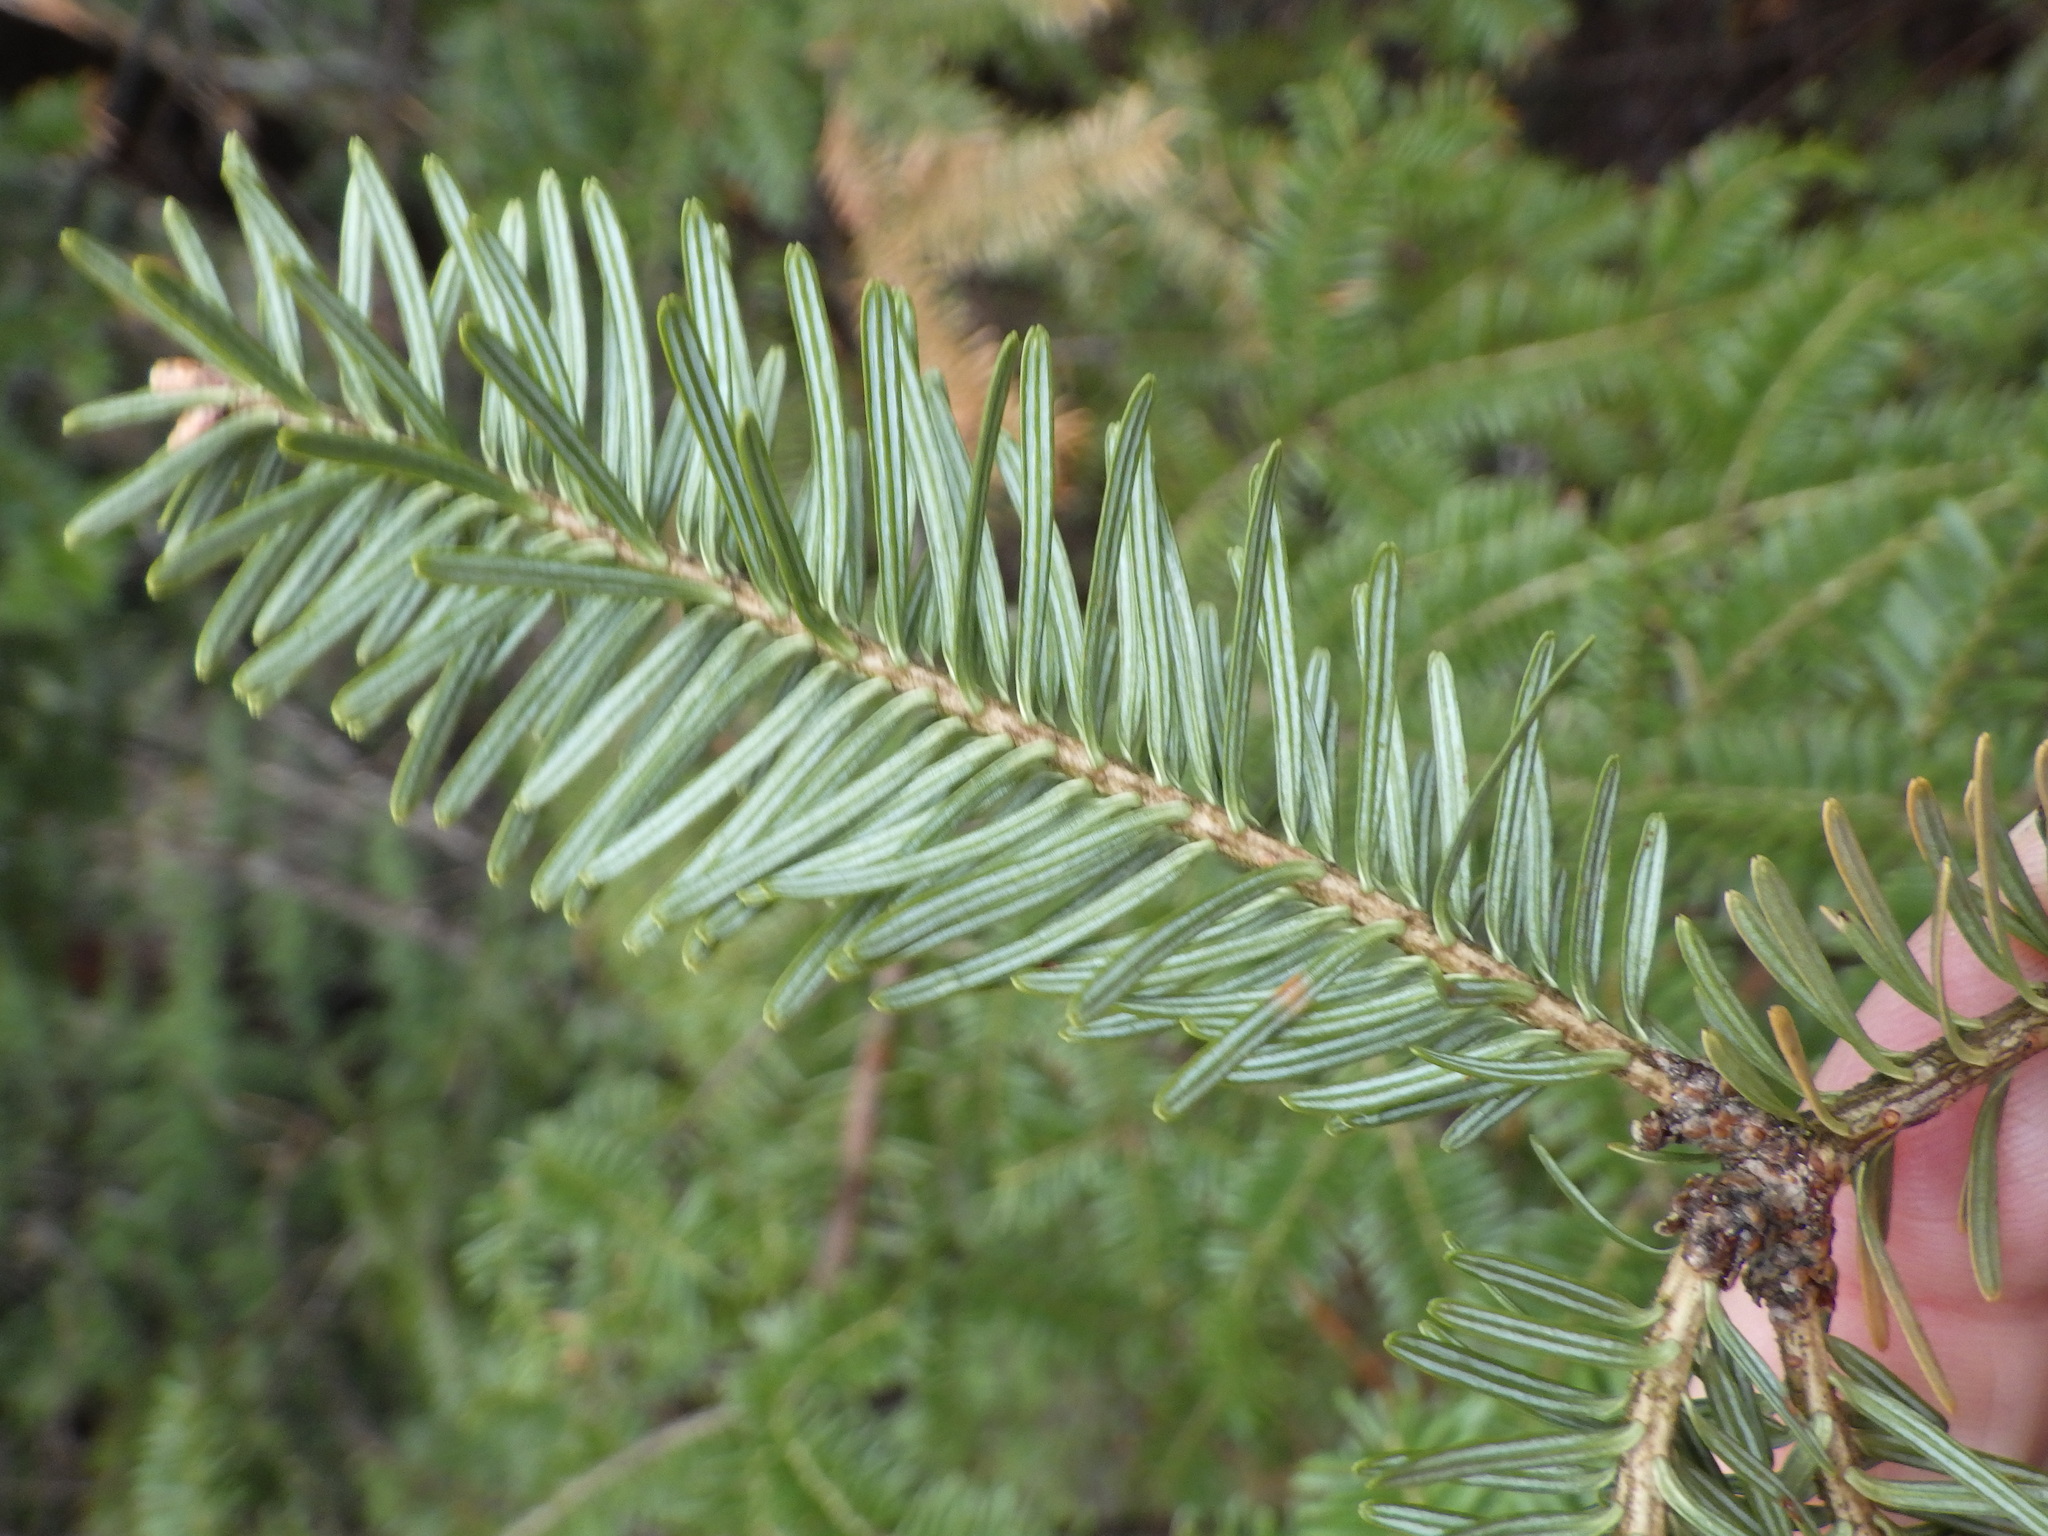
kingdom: Plantae
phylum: Tracheophyta
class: Pinopsida
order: Pinales
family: Pinaceae
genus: Abies
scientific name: Abies balsamea
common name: Balsam fir
